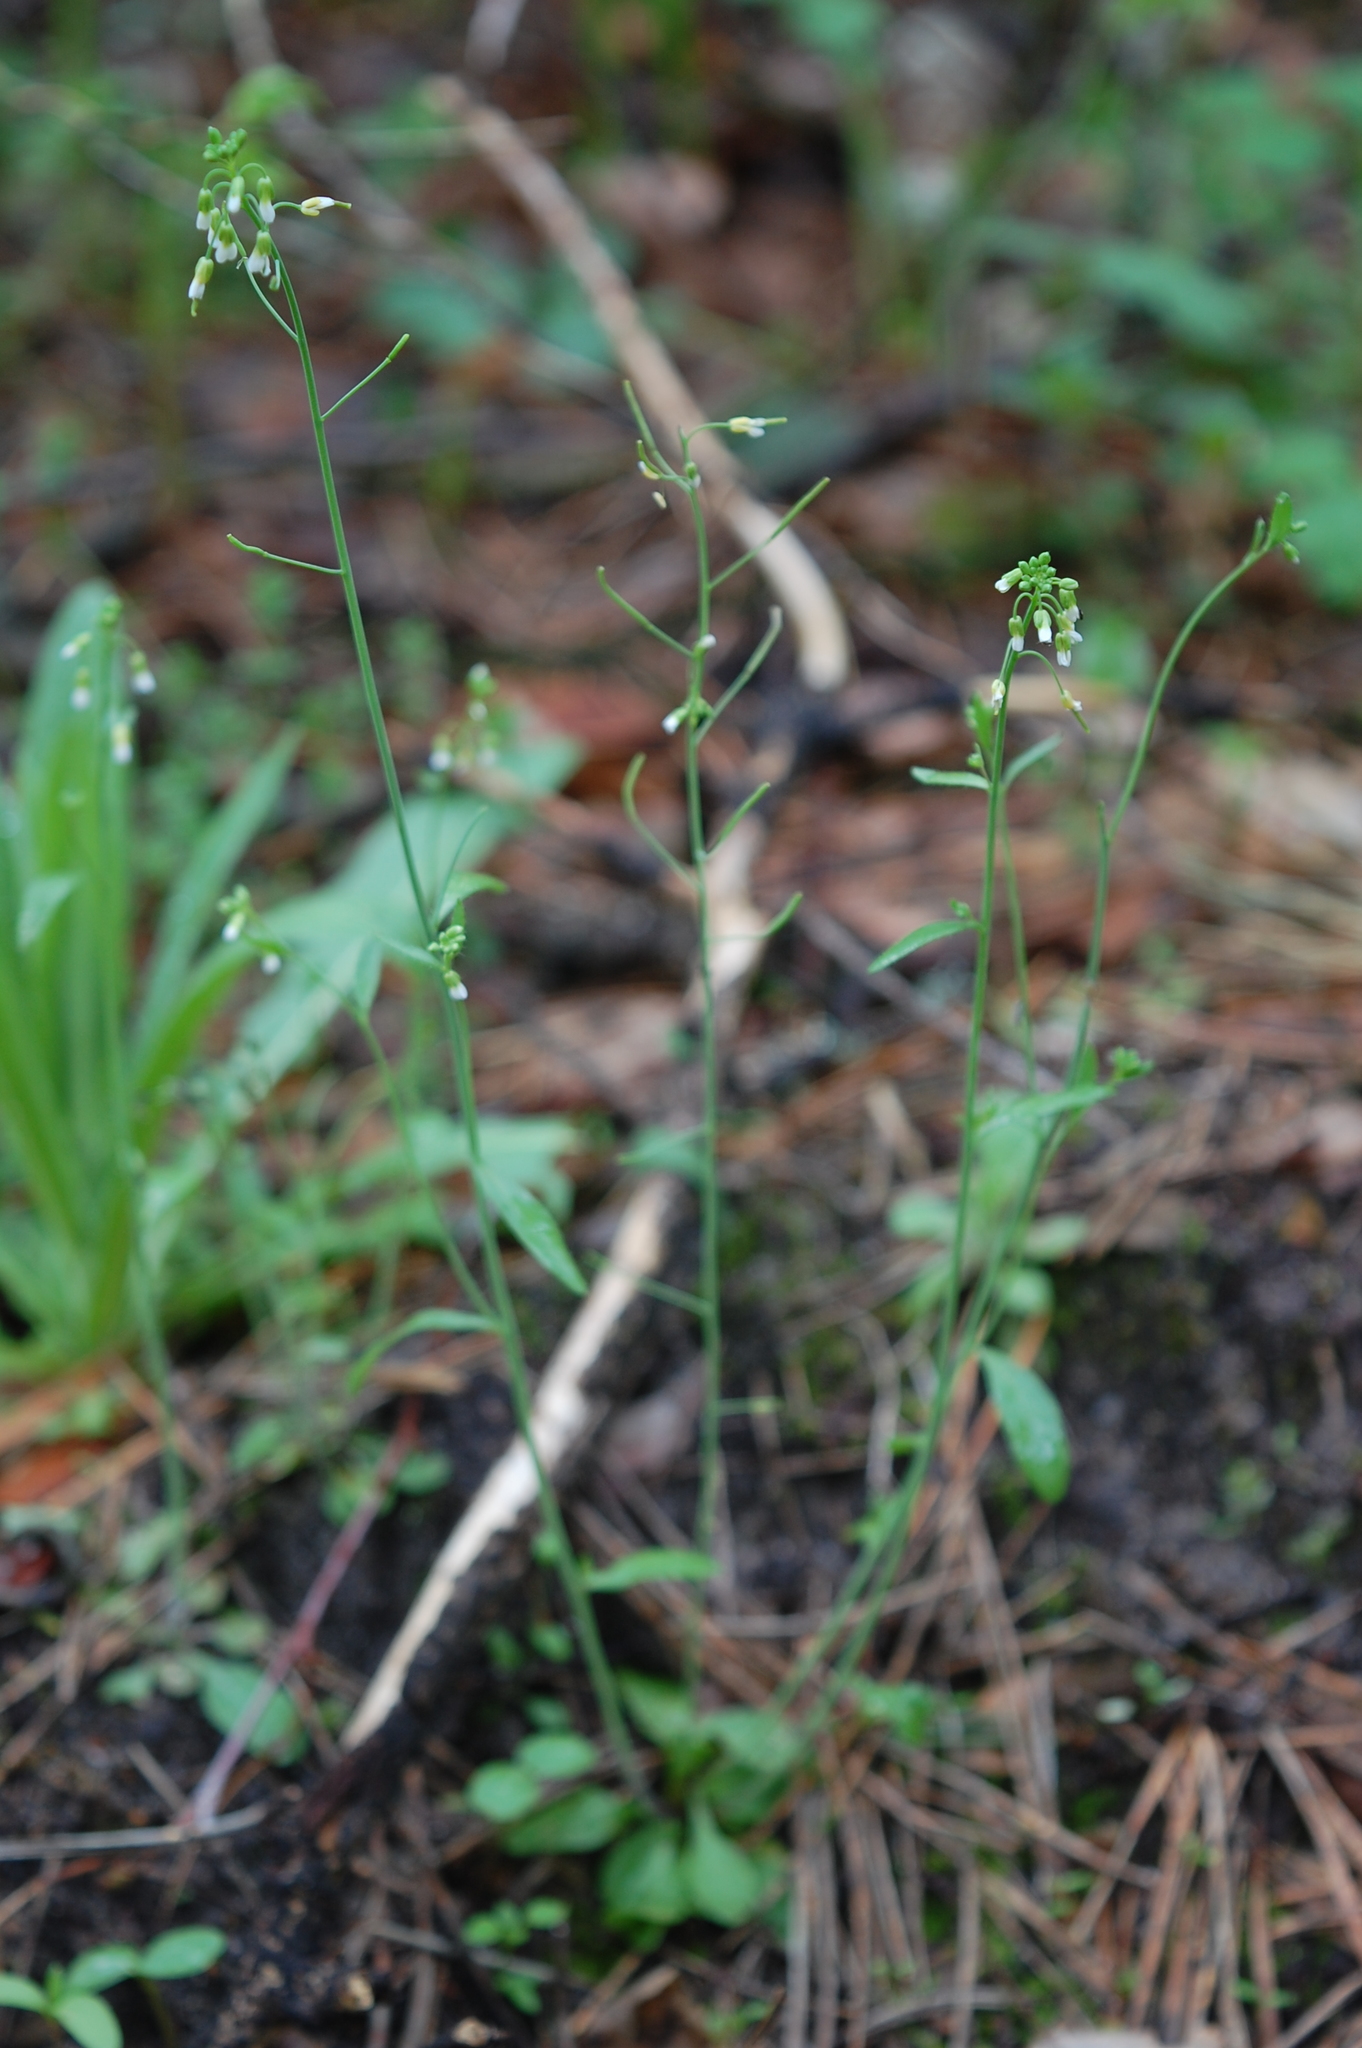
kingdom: Plantae
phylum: Tracheophyta
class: Magnoliopsida
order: Brassicales
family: Brassicaceae
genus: Arabidopsis
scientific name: Arabidopsis thaliana
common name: Thale cress
